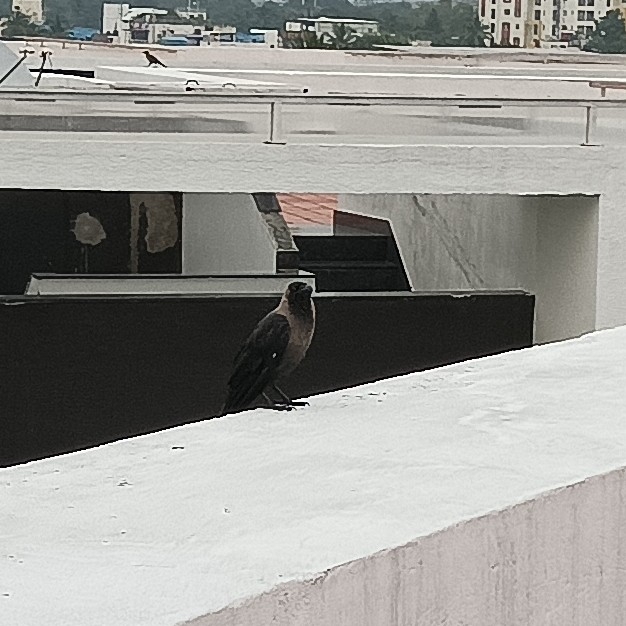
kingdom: Animalia
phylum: Chordata
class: Aves
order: Passeriformes
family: Corvidae
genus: Corvus
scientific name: Corvus splendens
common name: House crow
